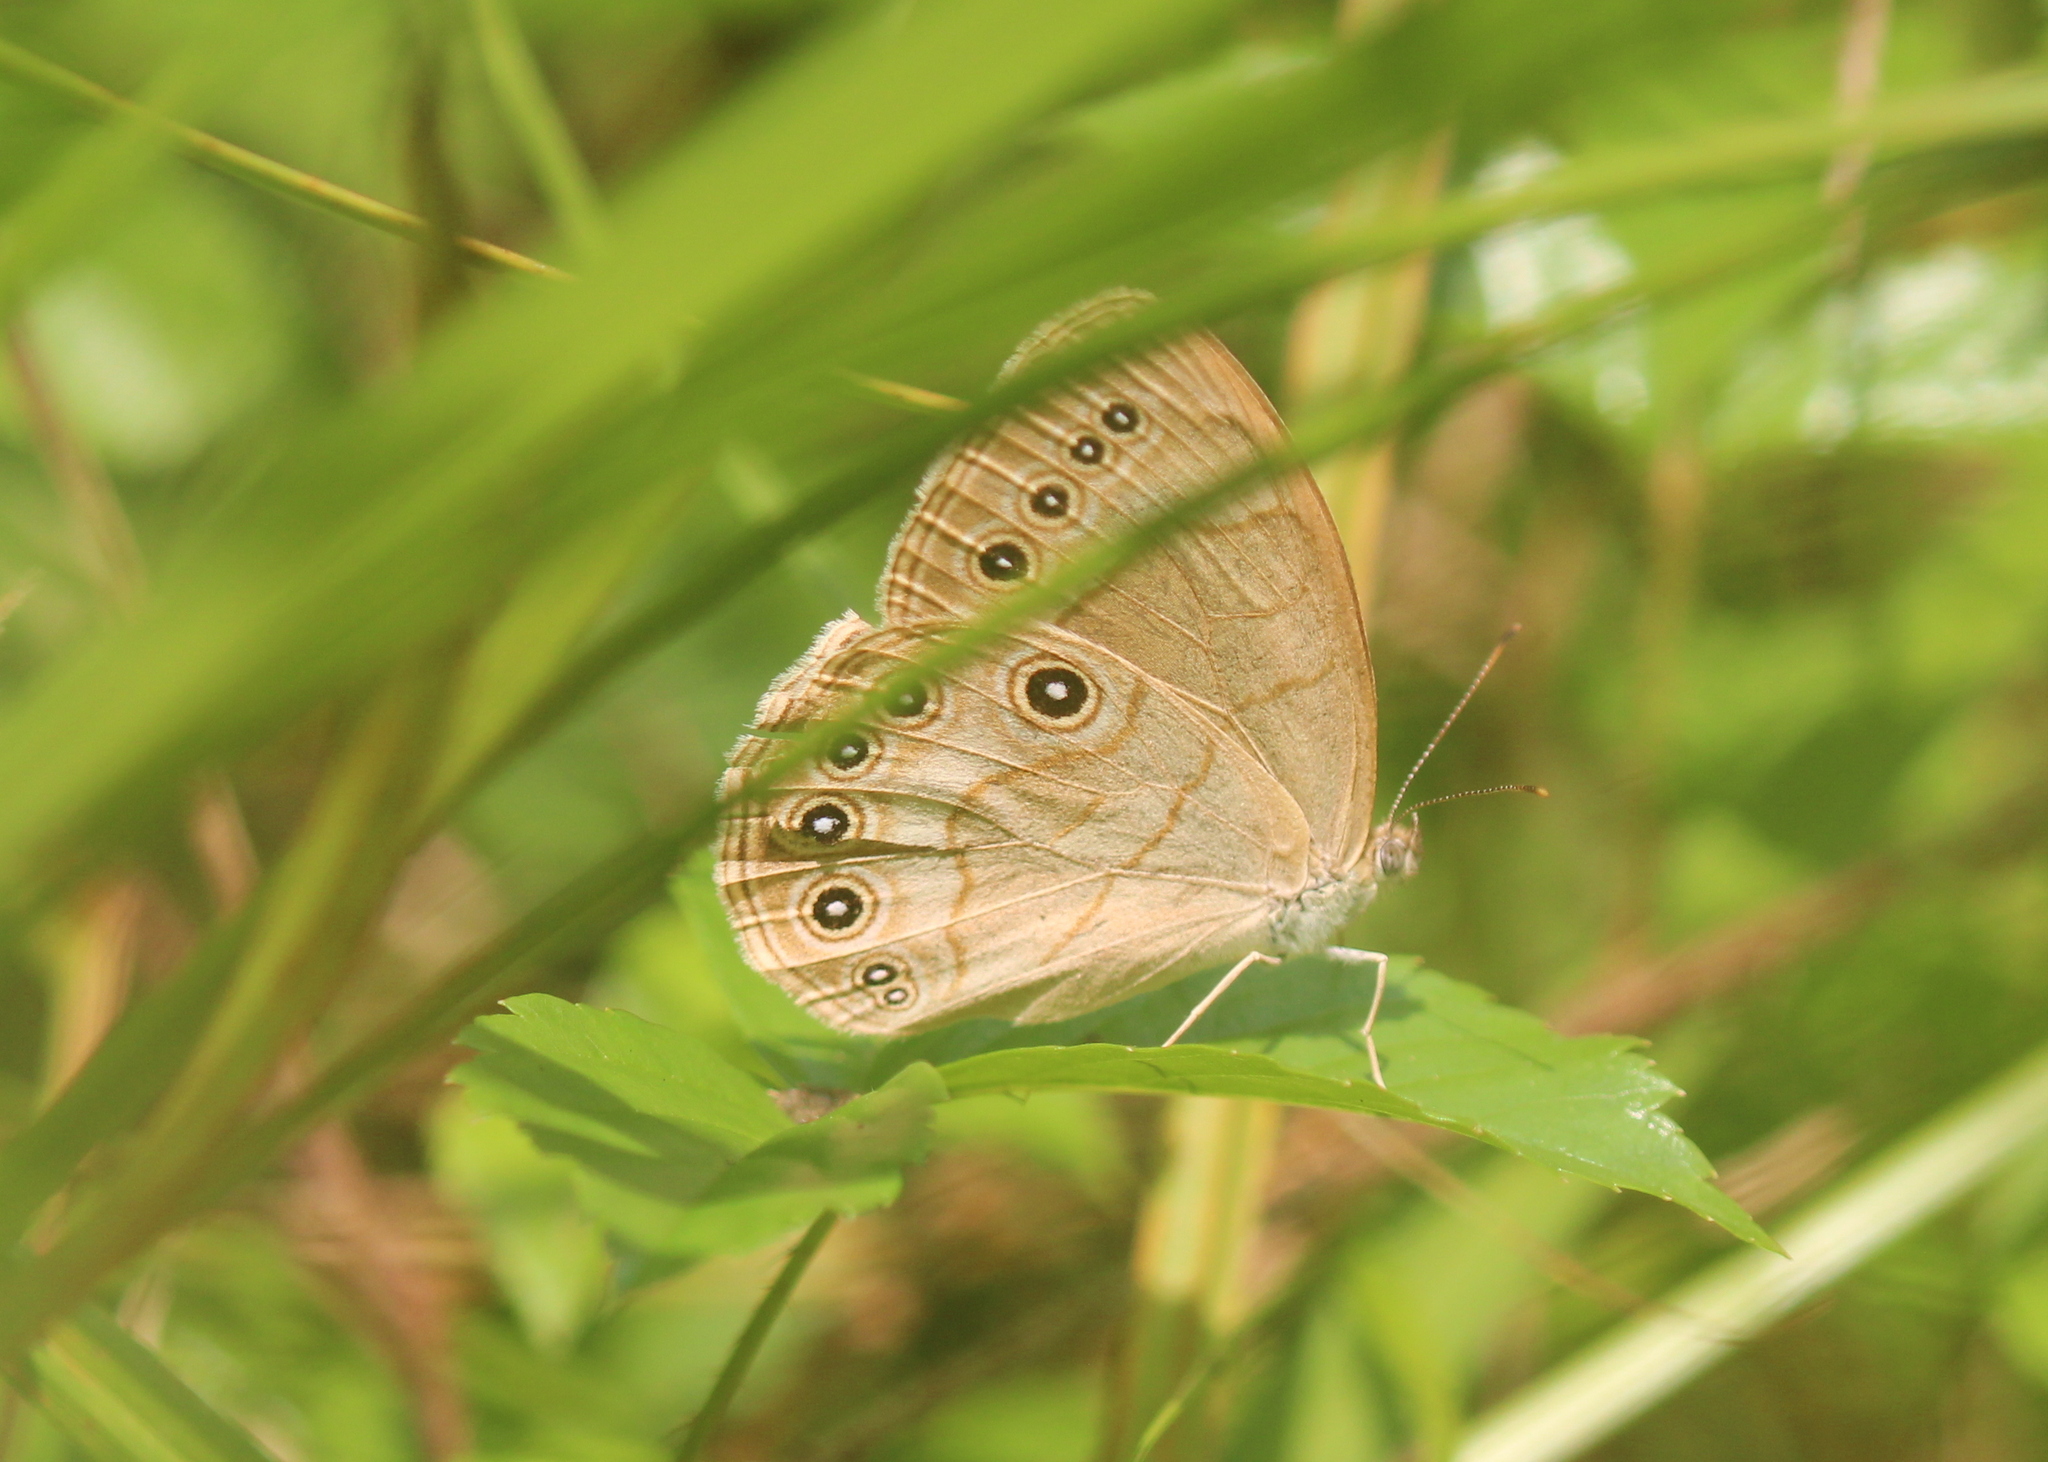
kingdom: Animalia
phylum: Arthropoda
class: Insecta
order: Lepidoptera
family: Nymphalidae
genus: Lethe
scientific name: Lethe eurydice
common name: Eyed brown
